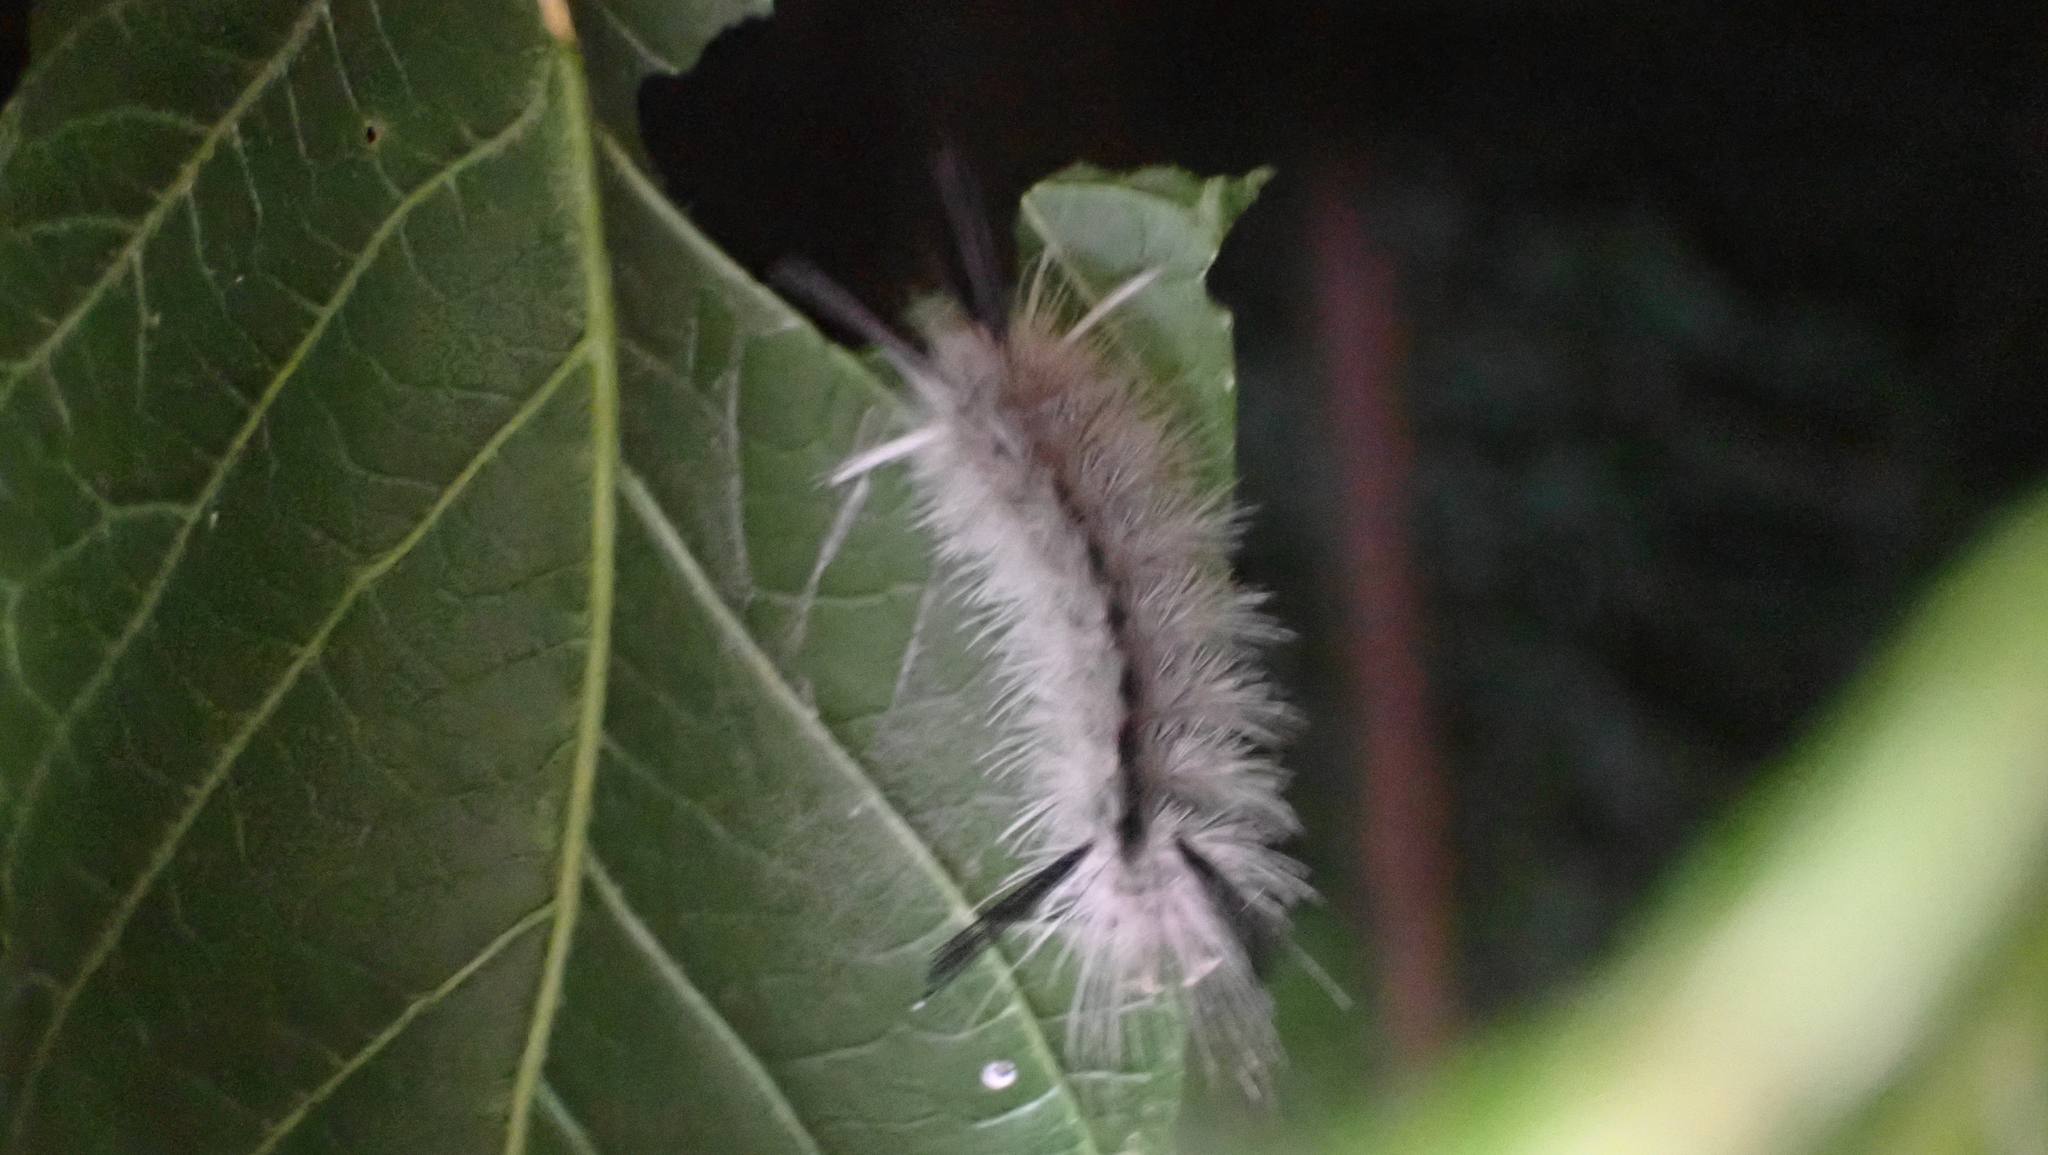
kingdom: Animalia
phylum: Arthropoda
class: Insecta
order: Lepidoptera
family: Erebidae
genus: Halysidota
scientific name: Halysidota tessellaris
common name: Banded tussock moth
